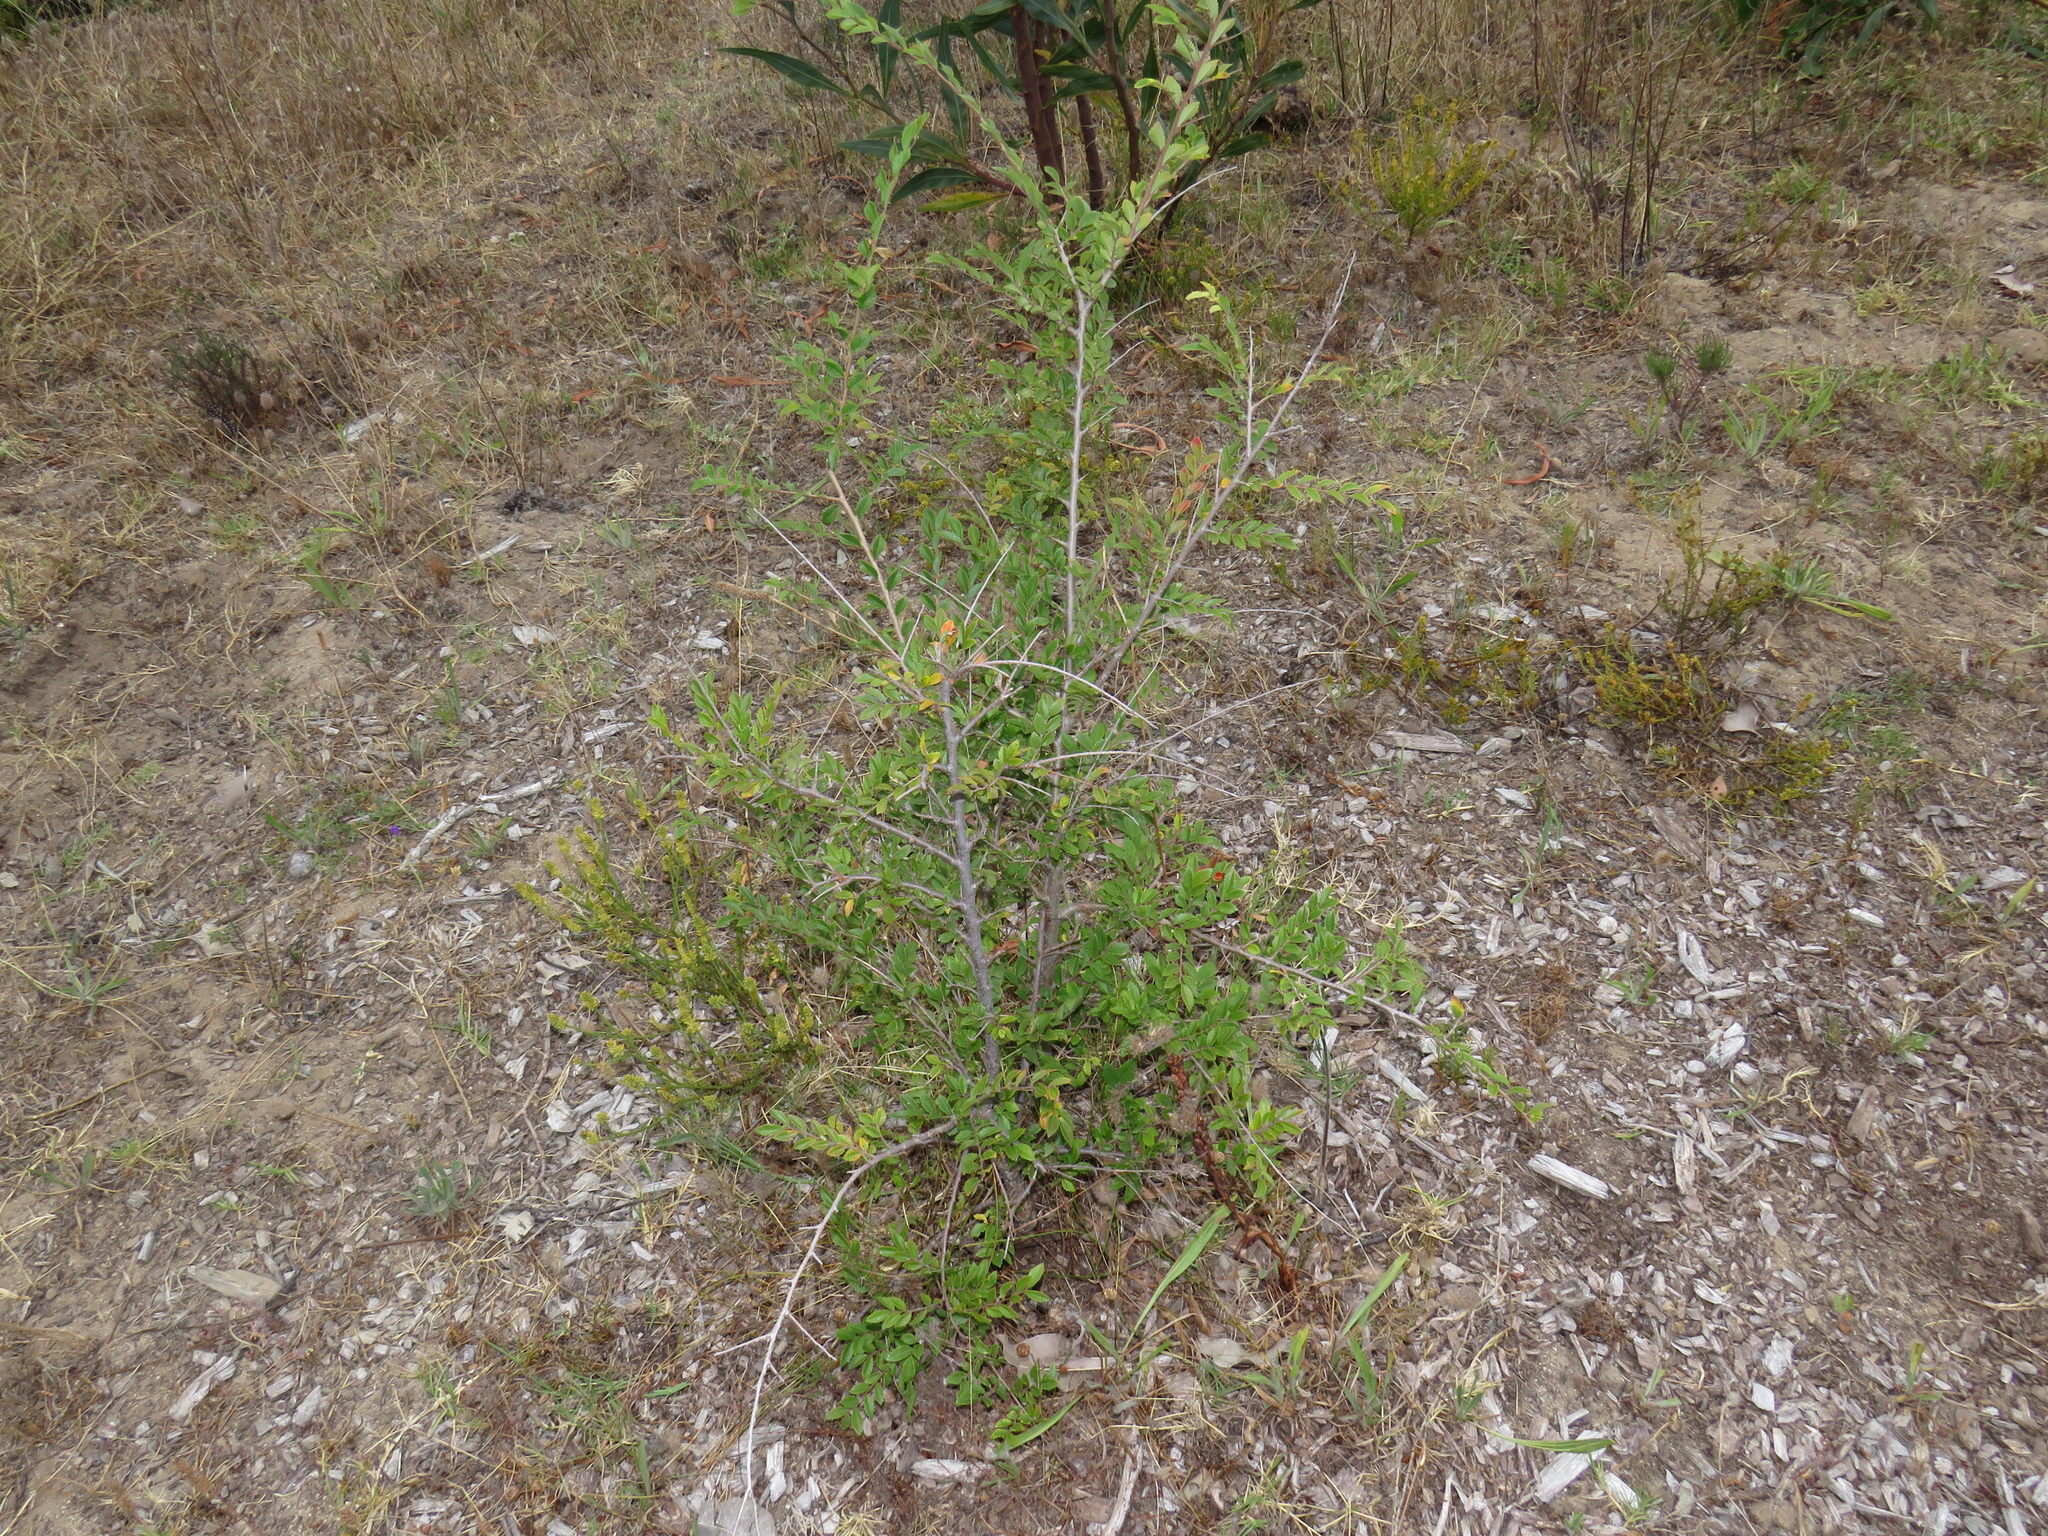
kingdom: Plantae
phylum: Tracheophyta
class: Magnoliopsida
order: Rosales
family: Ulmaceae
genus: Ulmus
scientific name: Ulmus parvifolia
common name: Chinese elm
